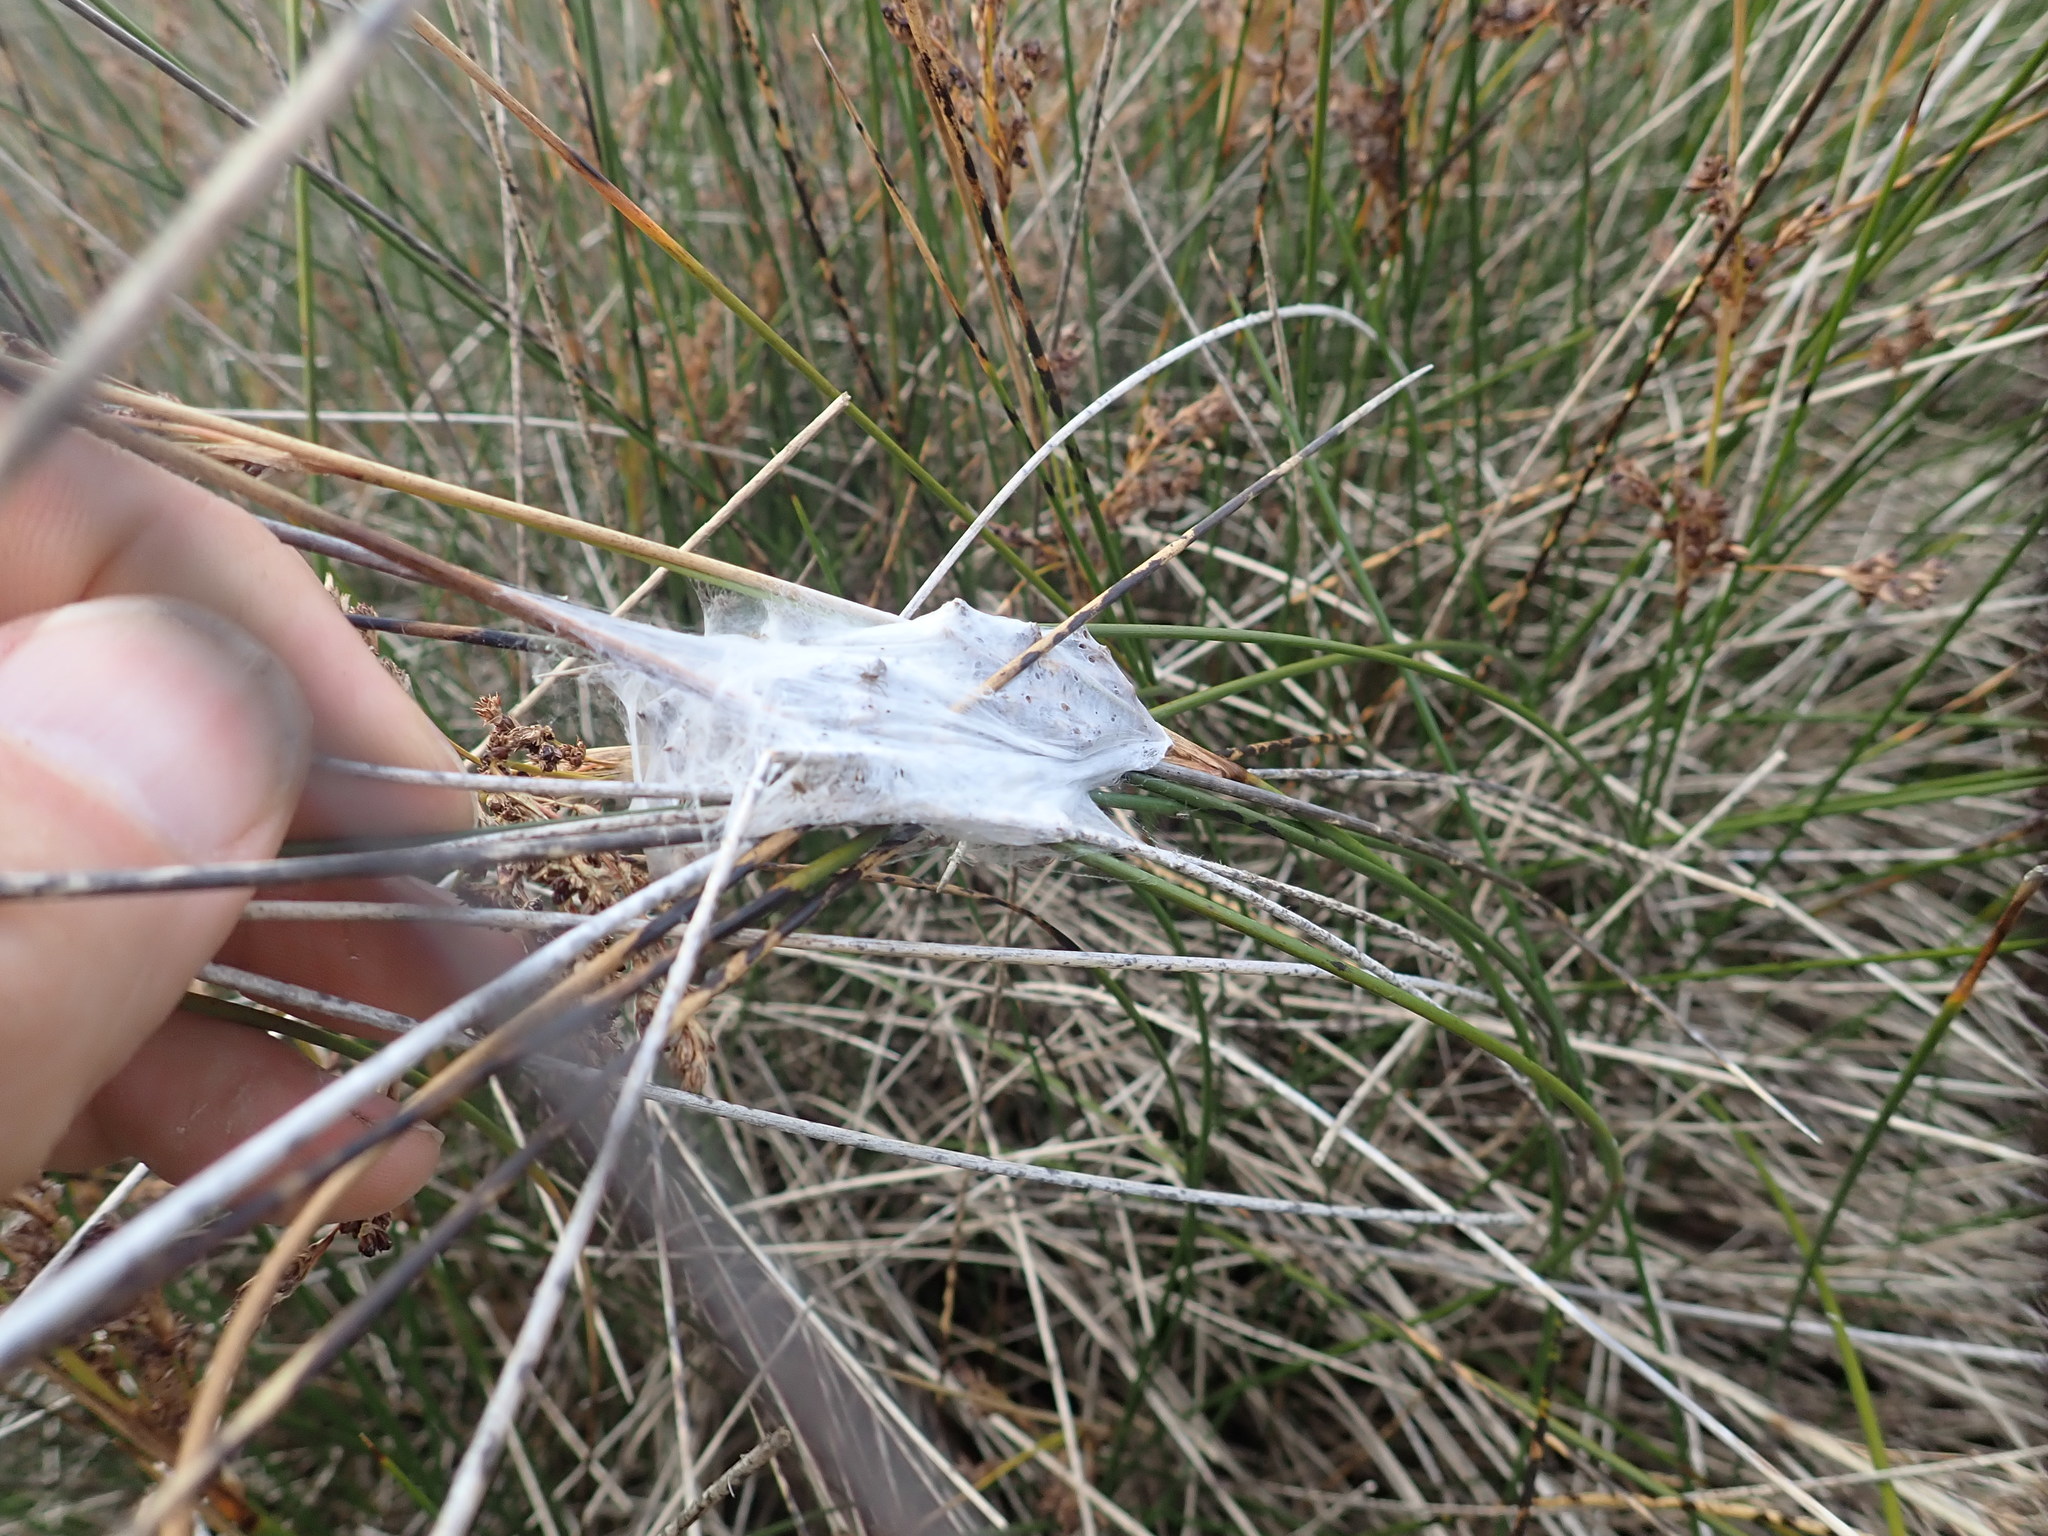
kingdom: Animalia
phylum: Arthropoda
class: Arachnida
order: Araneae
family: Pisauridae
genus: Dolomedes
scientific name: Dolomedes minor
